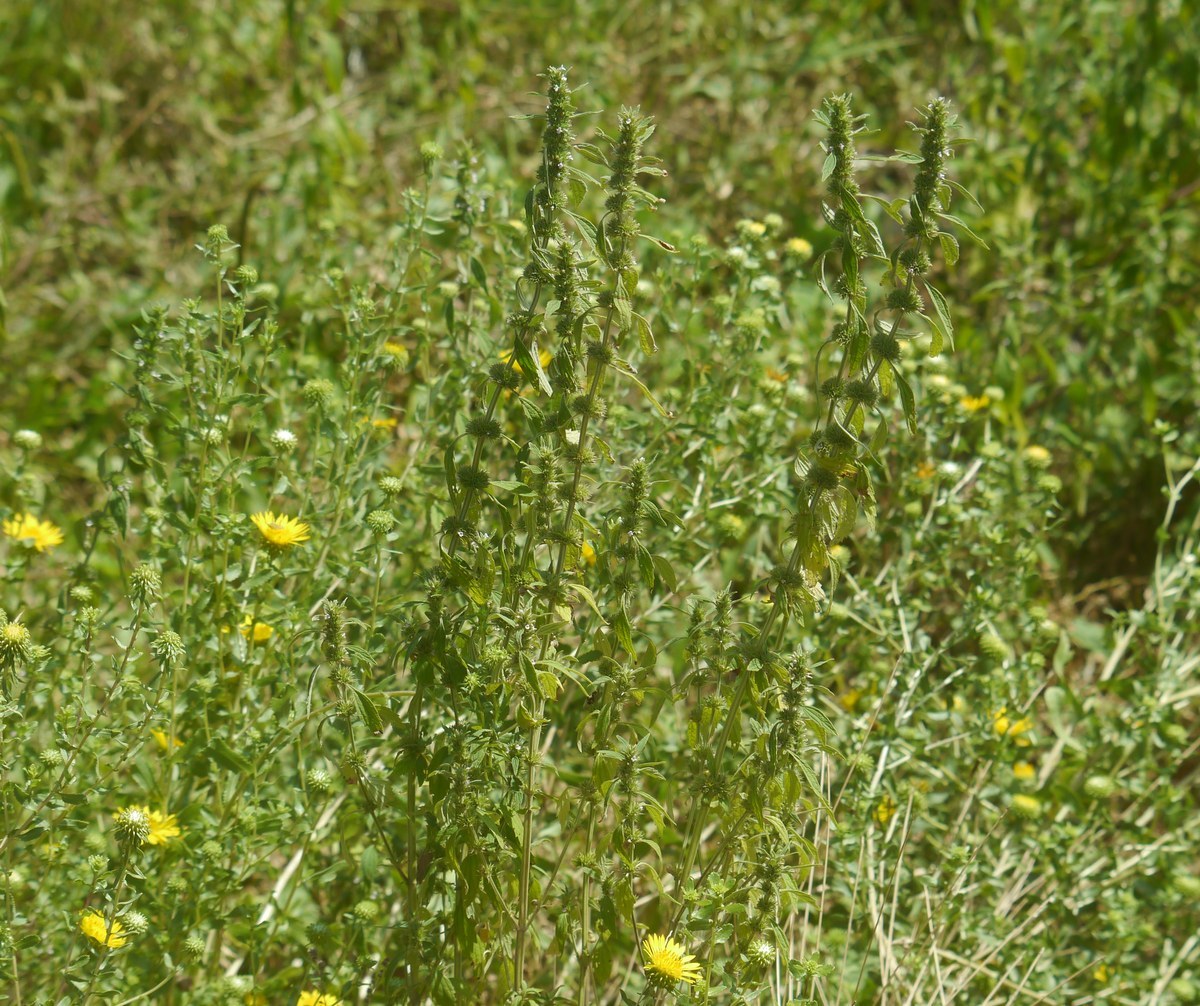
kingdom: Plantae
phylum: Tracheophyta
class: Magnoliopsida
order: Lamiales
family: Lamiaceae
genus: Chaiturus
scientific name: Chaiturus marrubiastrum
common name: Lion's tail
